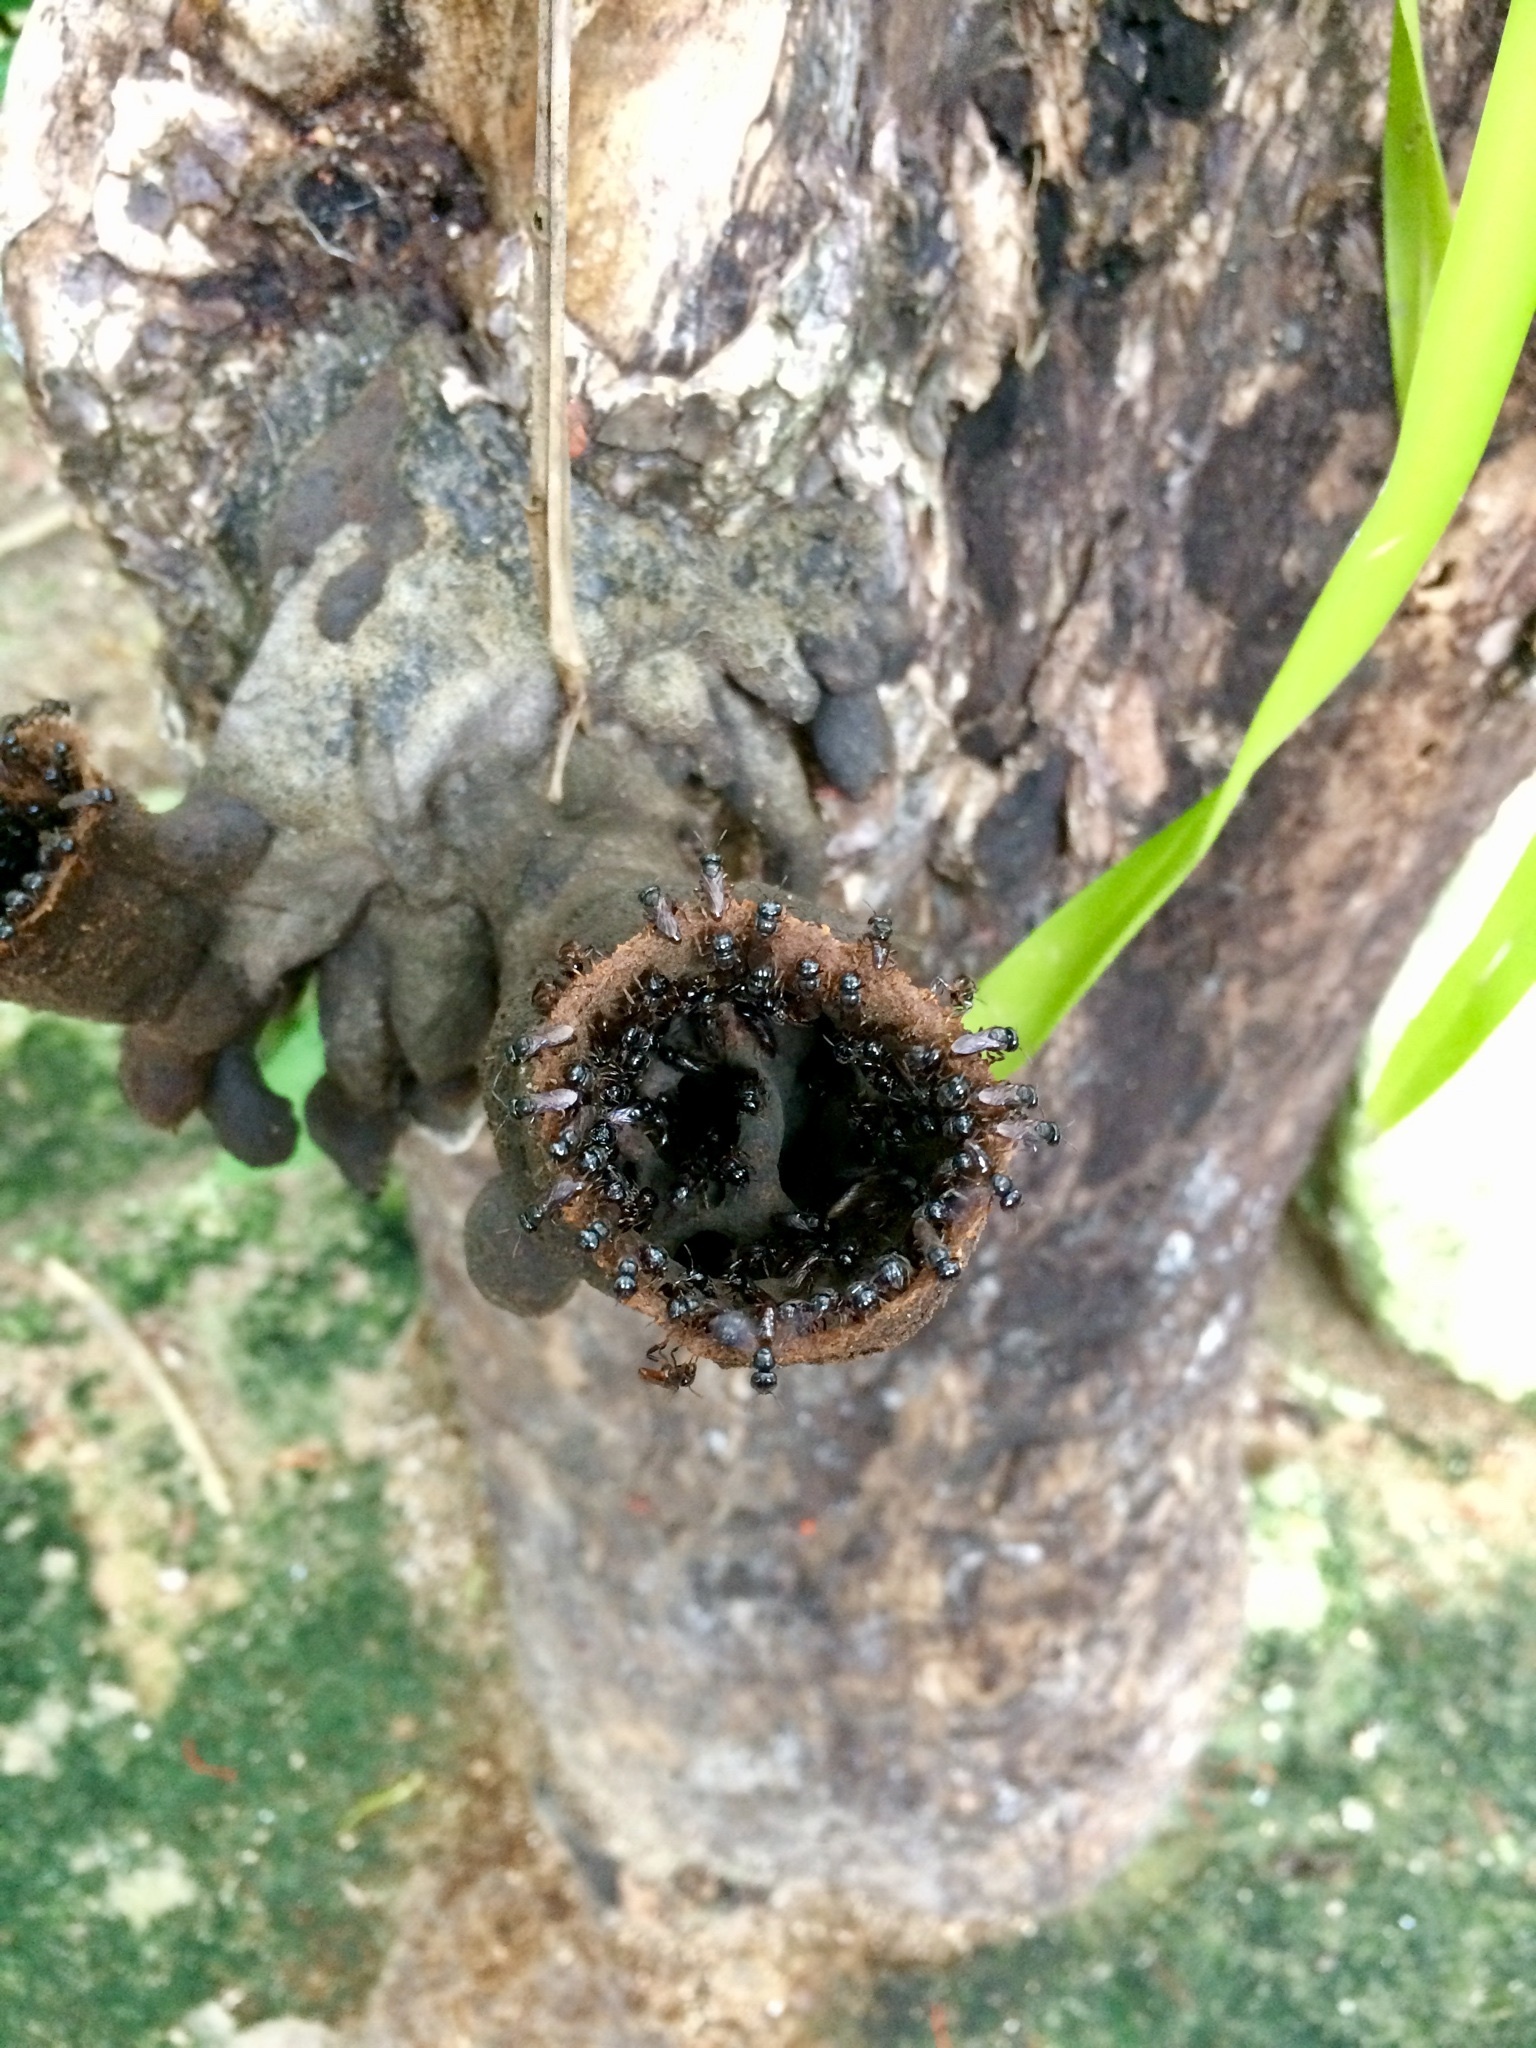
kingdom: Animalia
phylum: Arthropoda
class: Insecta
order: Hymenoptera
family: Apidae
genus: Lestrimelitta
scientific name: Lestrimelitta niitkib
